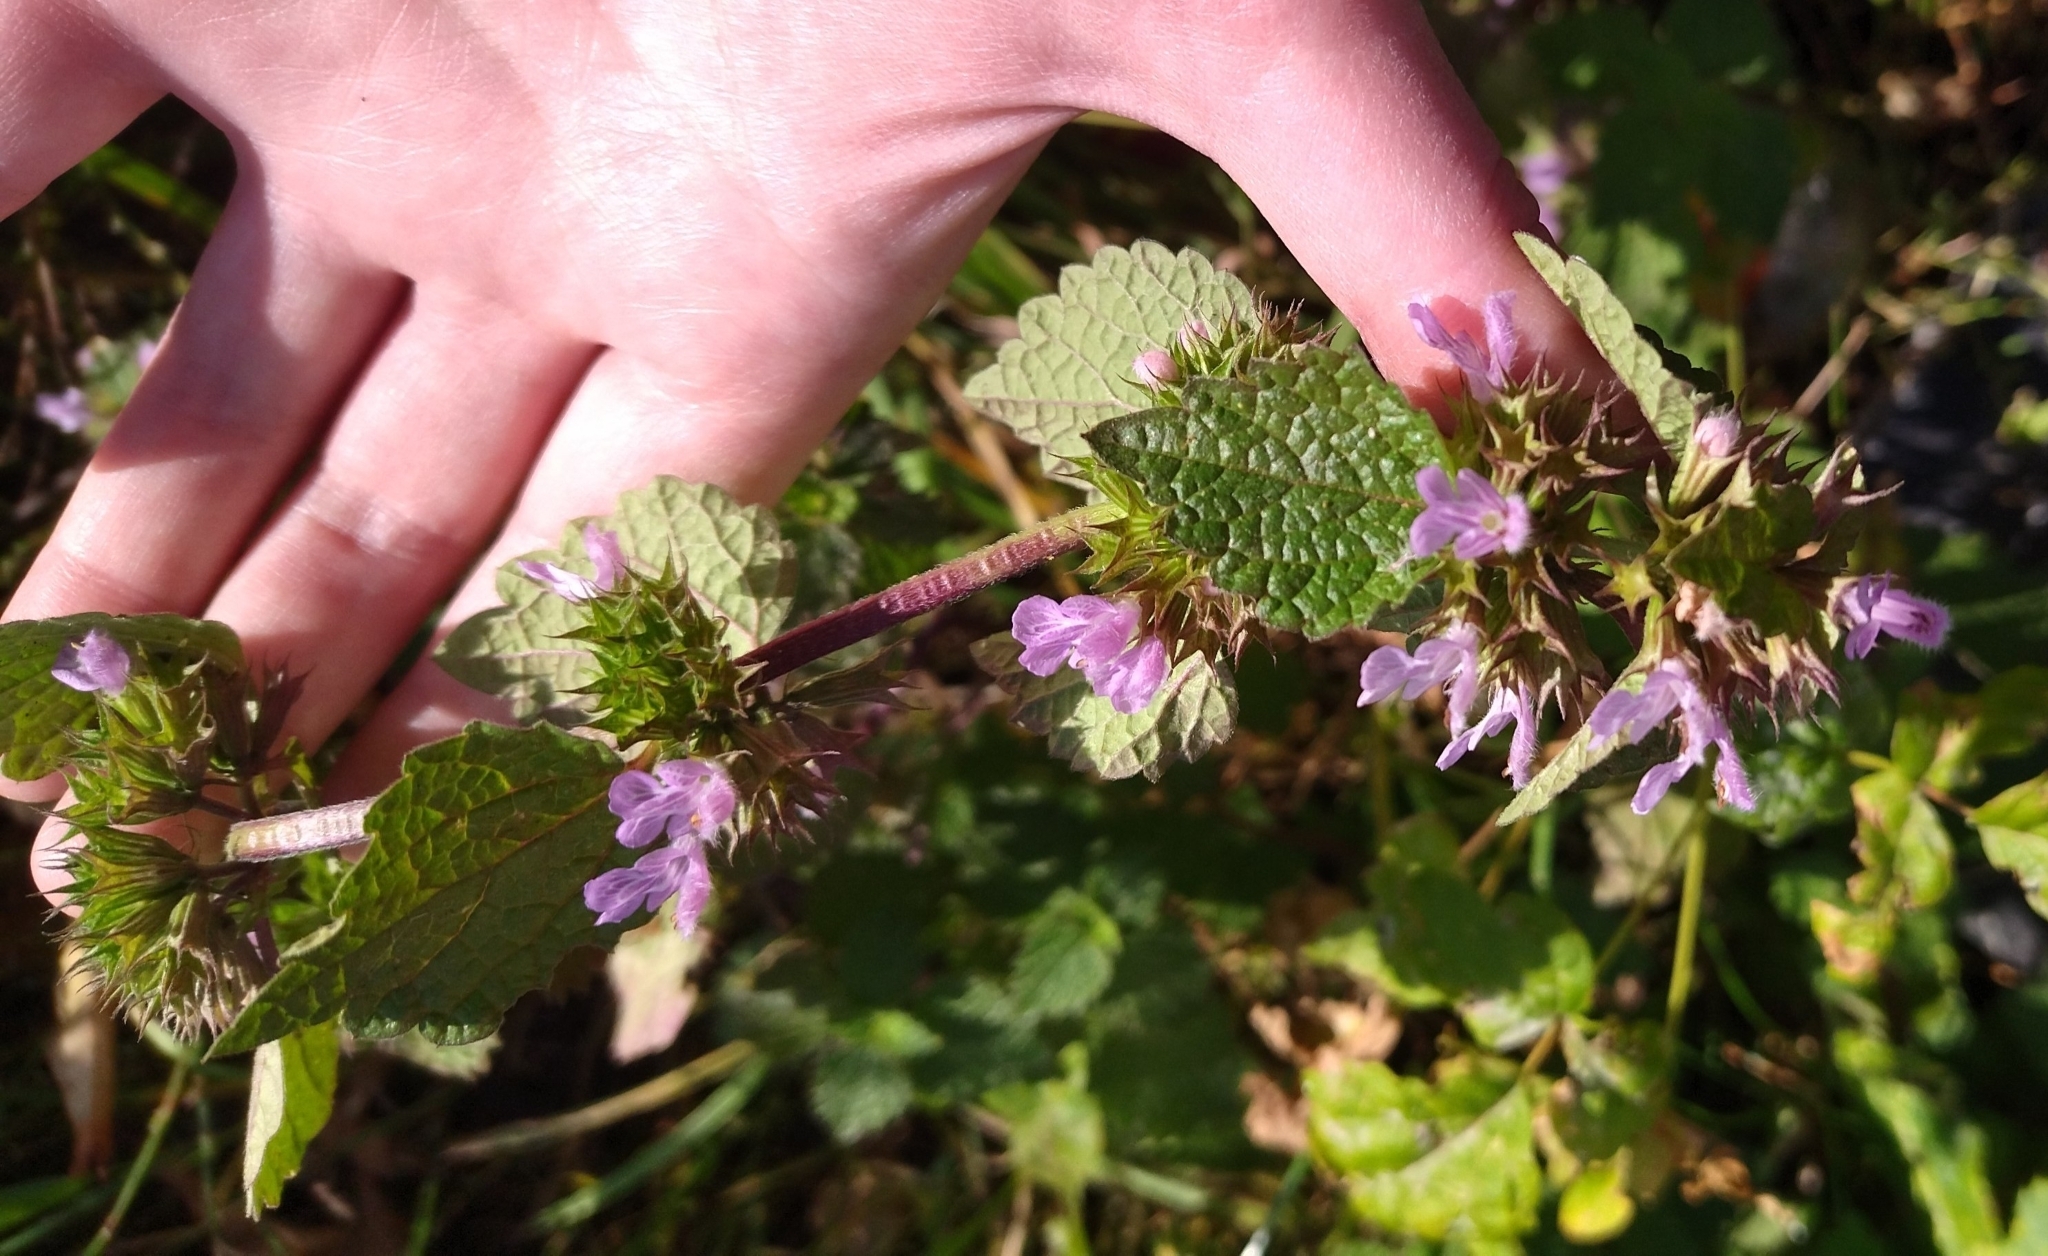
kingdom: Plantae
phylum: Tracheophyta
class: Magnoliopsida
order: Lamiales
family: Lamiaceae
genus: Ballota
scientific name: Ballota nigra
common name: Black horehound
